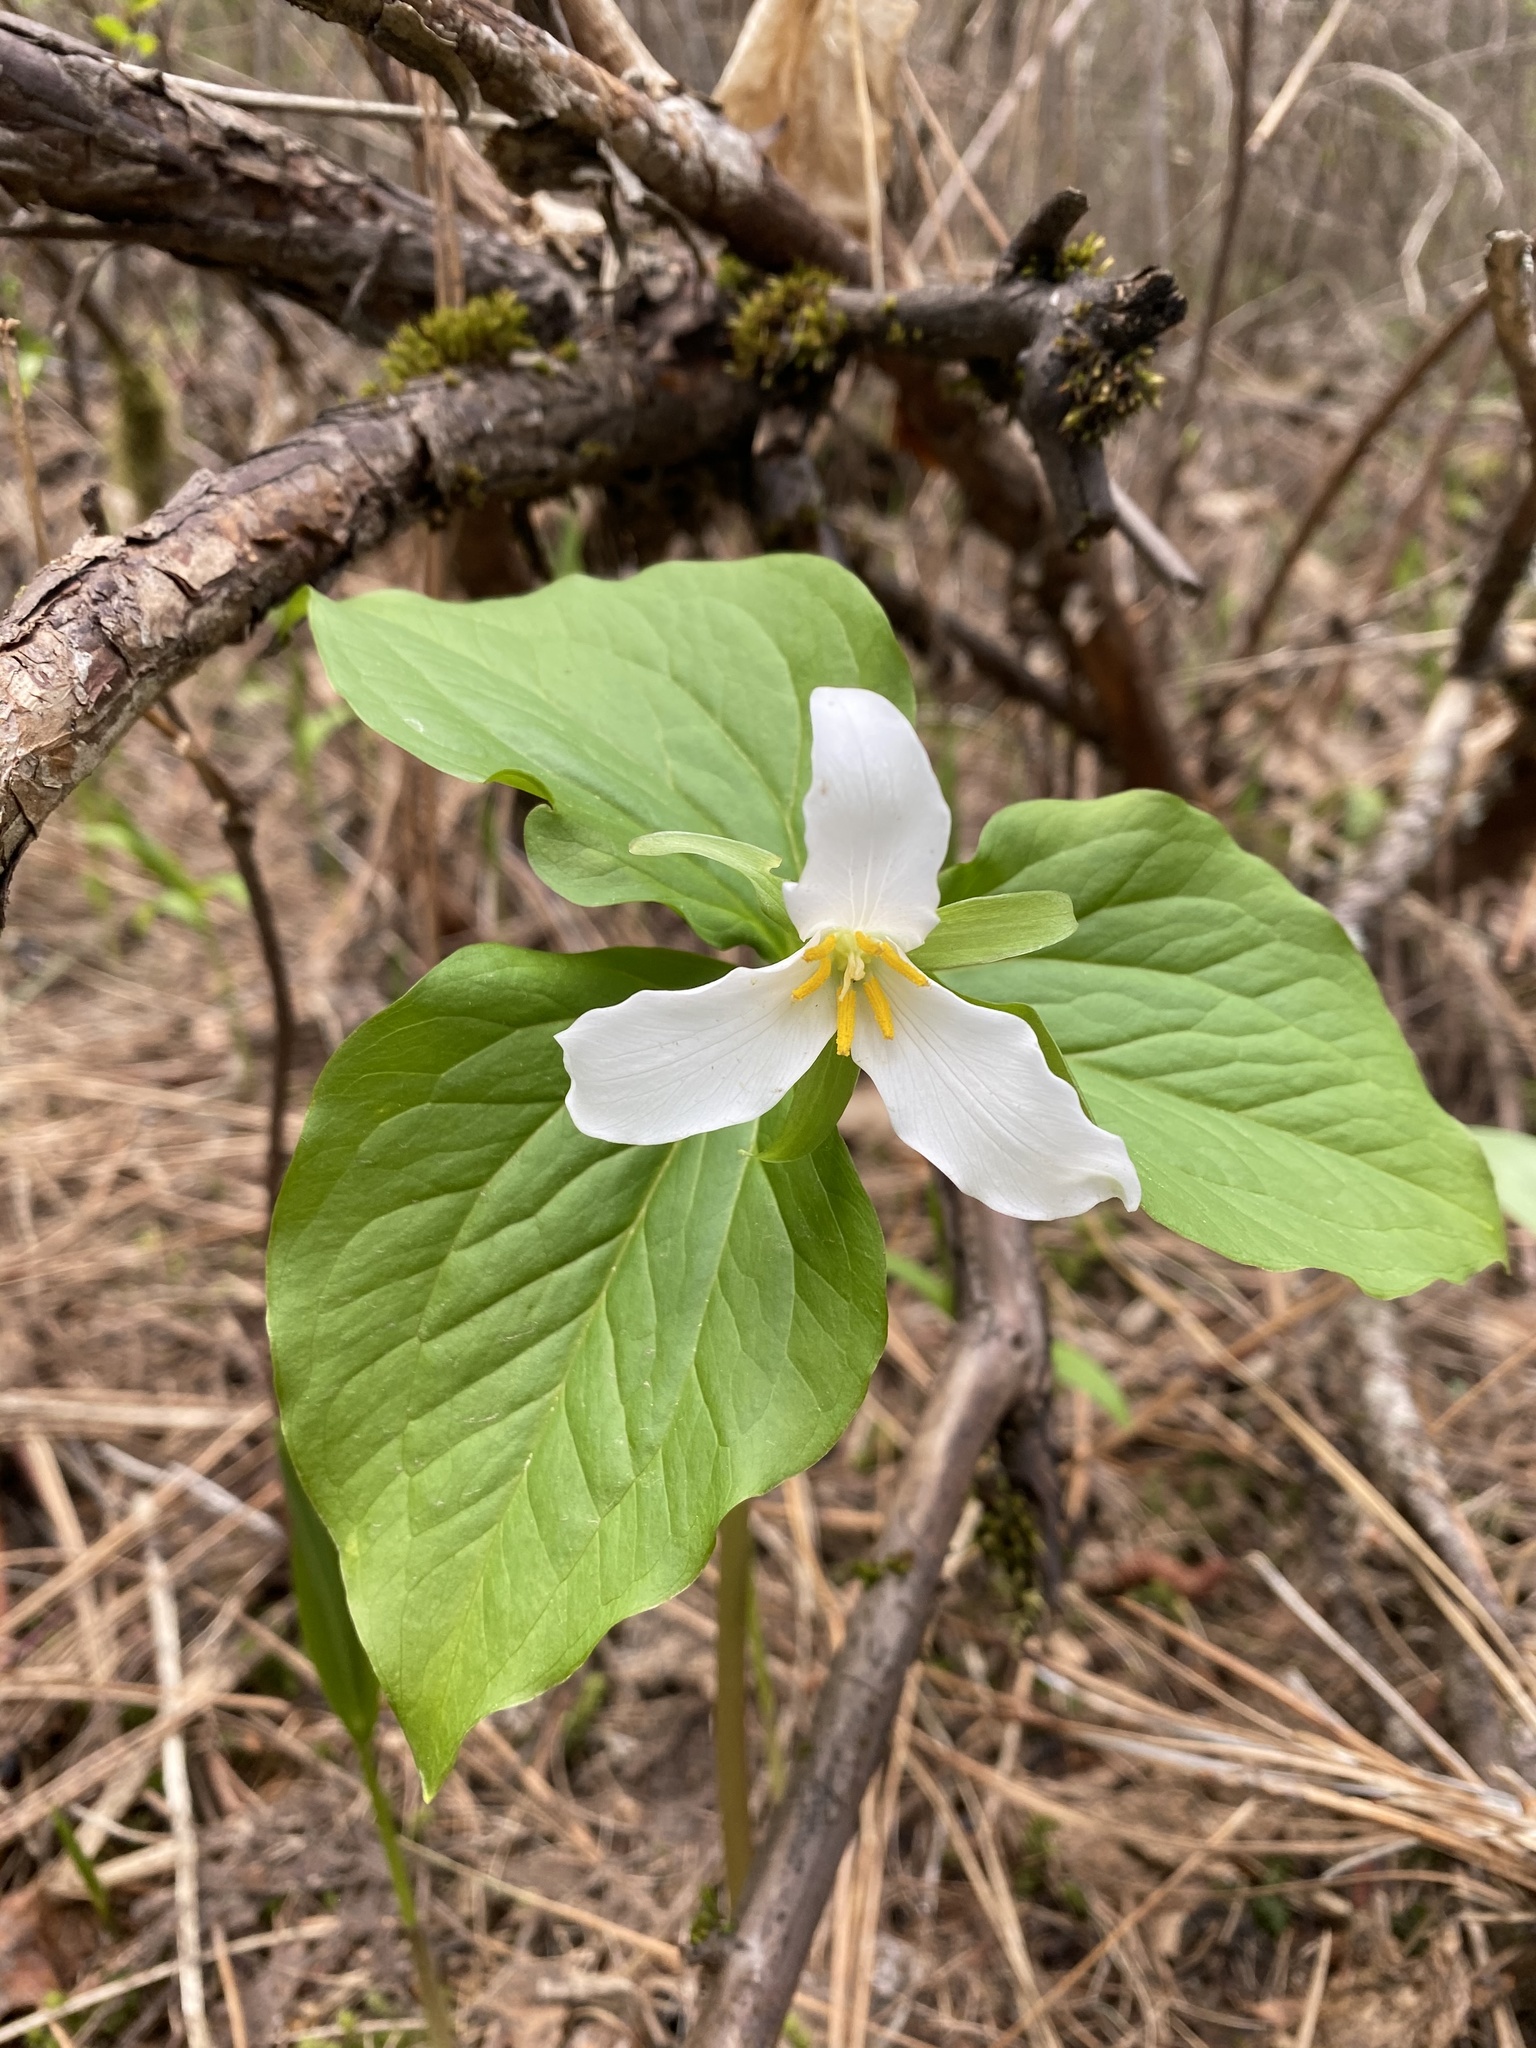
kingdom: Plantae
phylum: Tracheophyta
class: Liliopsida
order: Liliales
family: Melanthiaceae
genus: Trillium
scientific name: Trillium ovatum
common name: Pacific trillium
